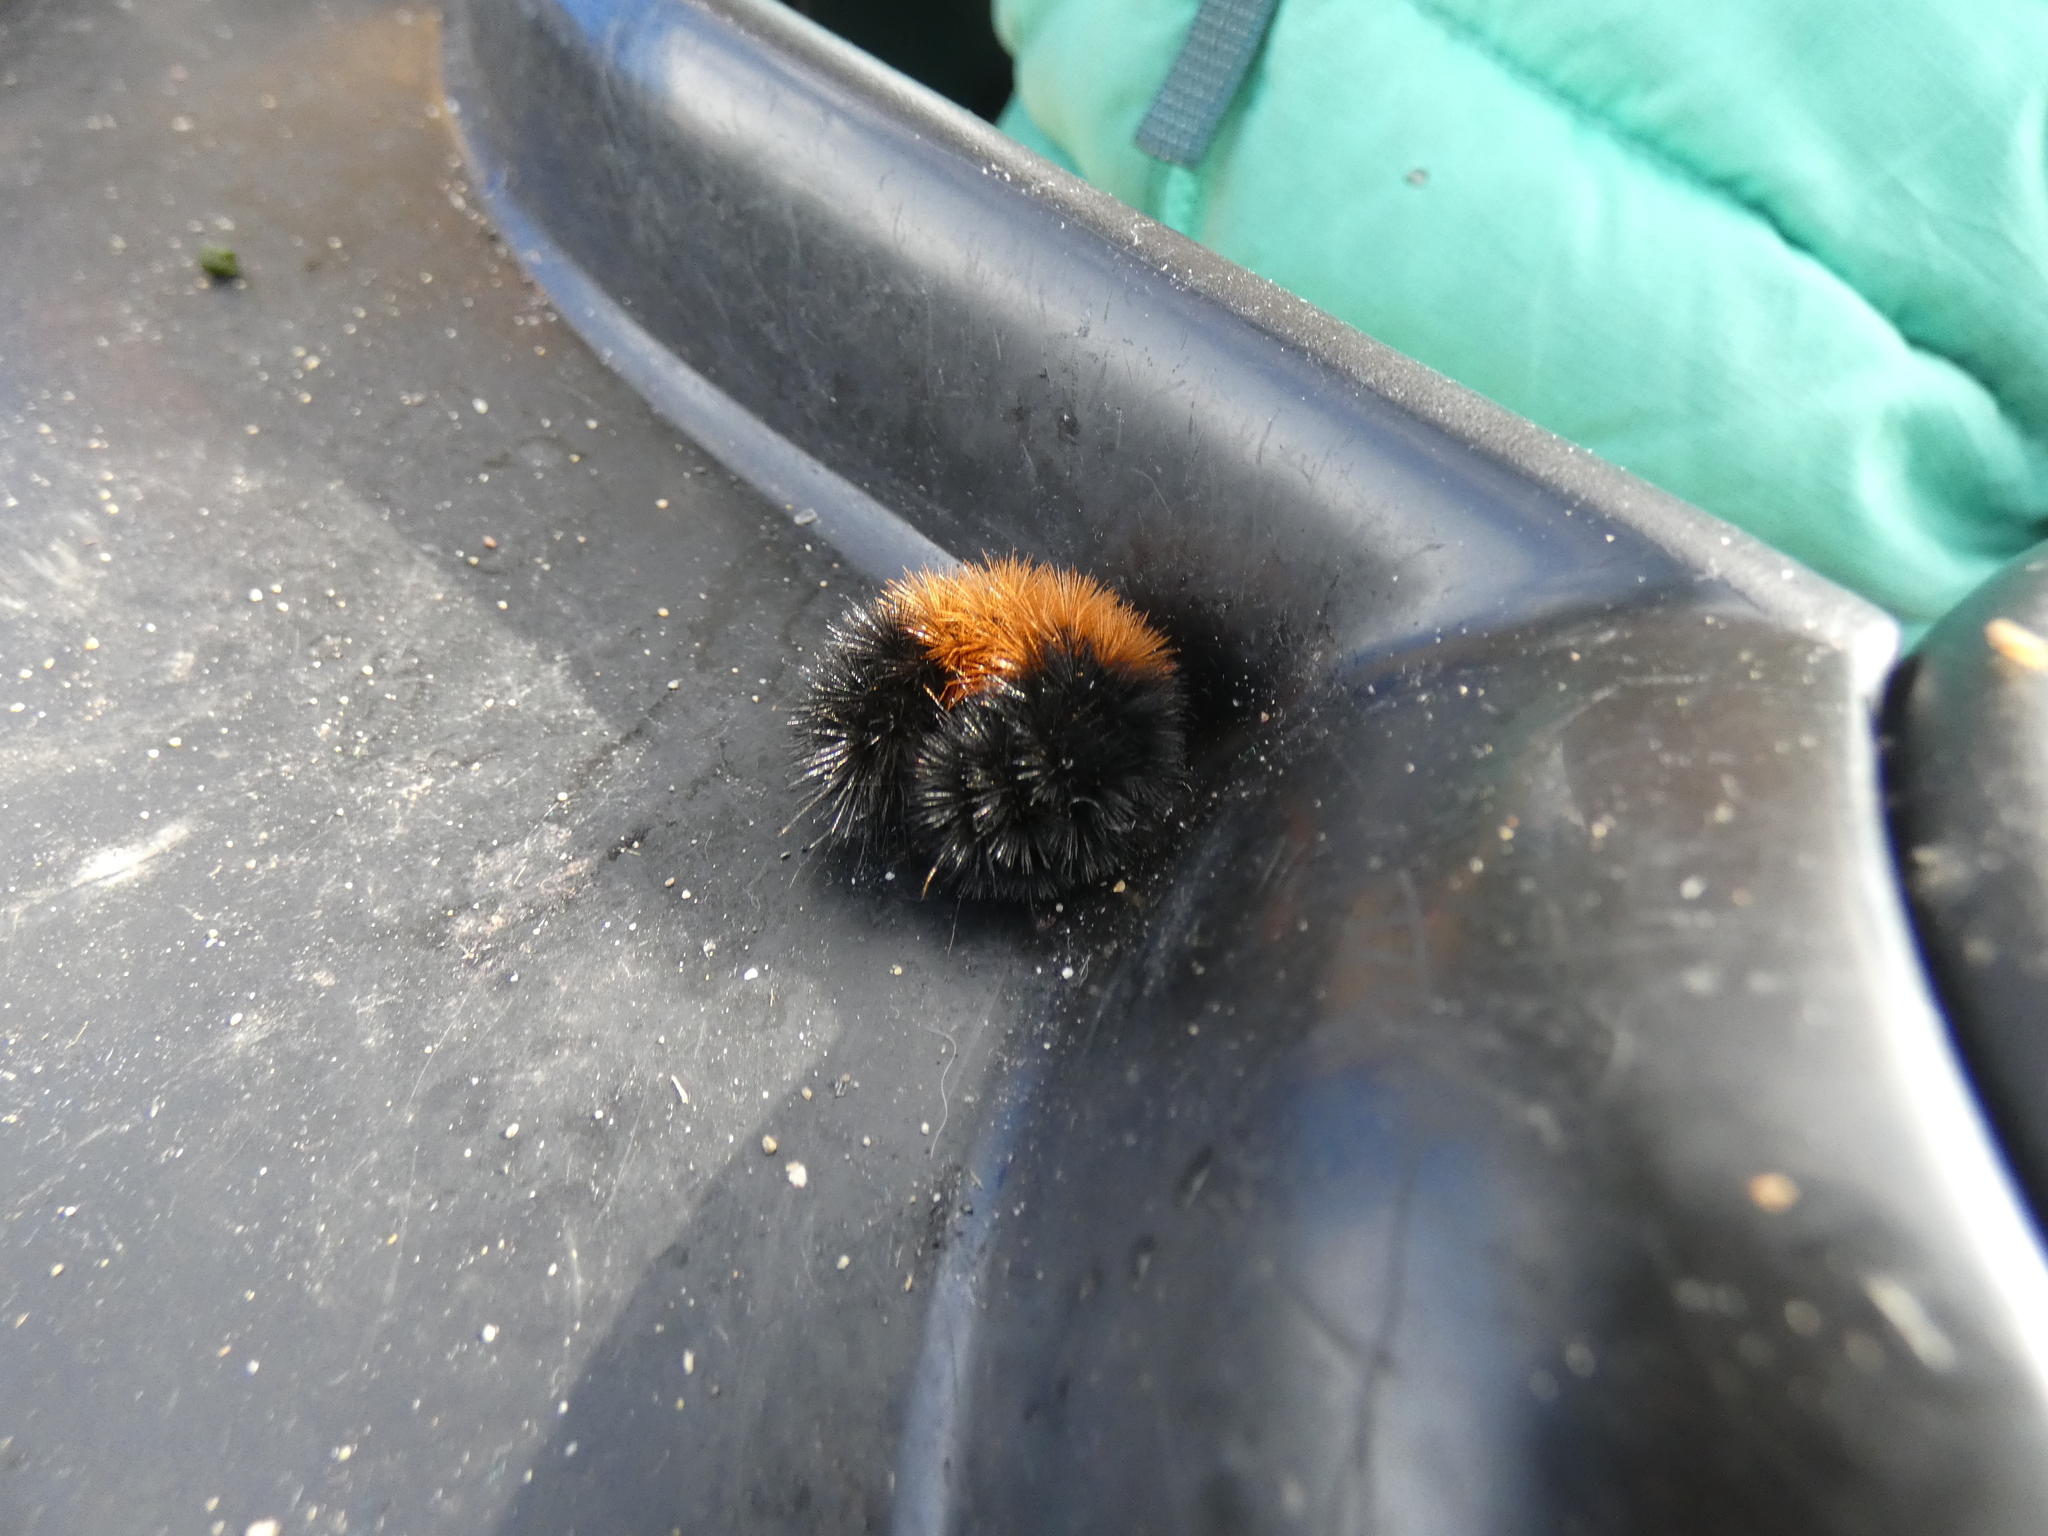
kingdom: Animalia
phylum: Arthropoda
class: Insecta
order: Lepidoptera
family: Erebidae
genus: Pyrrharctia
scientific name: Pyrrharctia isabella
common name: Isabella tiger moth
